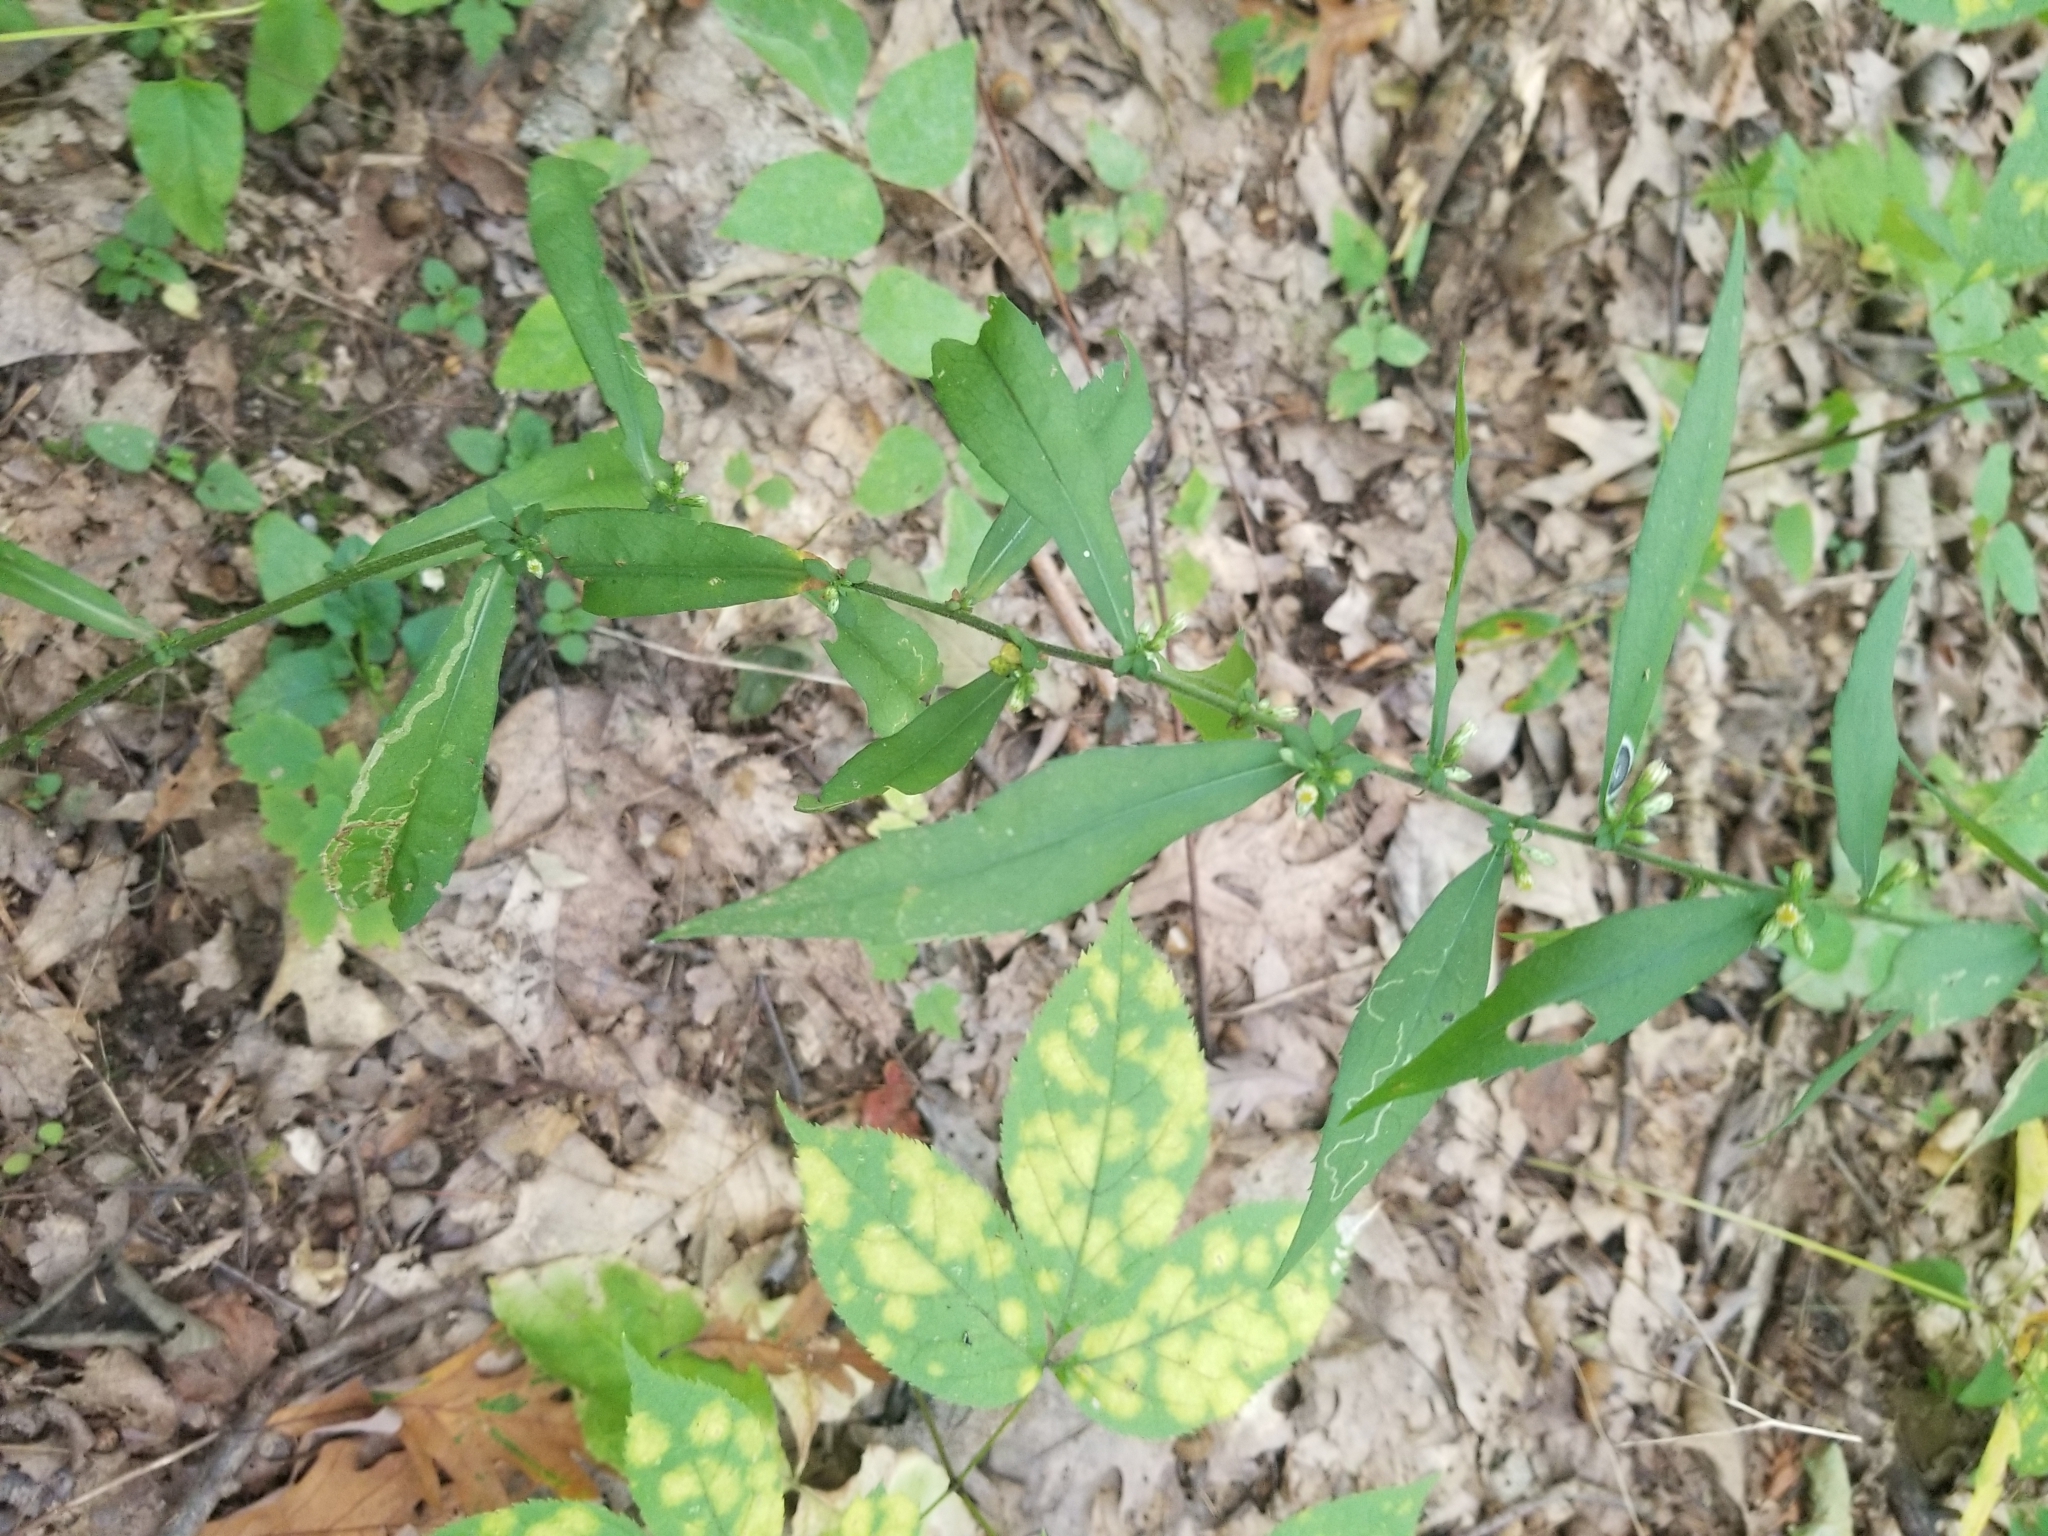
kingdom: Plantae
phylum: Tracheophyta
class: Magnoliopsida
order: Asterales
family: Asteraceae
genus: Symphyotrichum
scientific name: Symphyotrichum lateriflorum
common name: Calico aster
